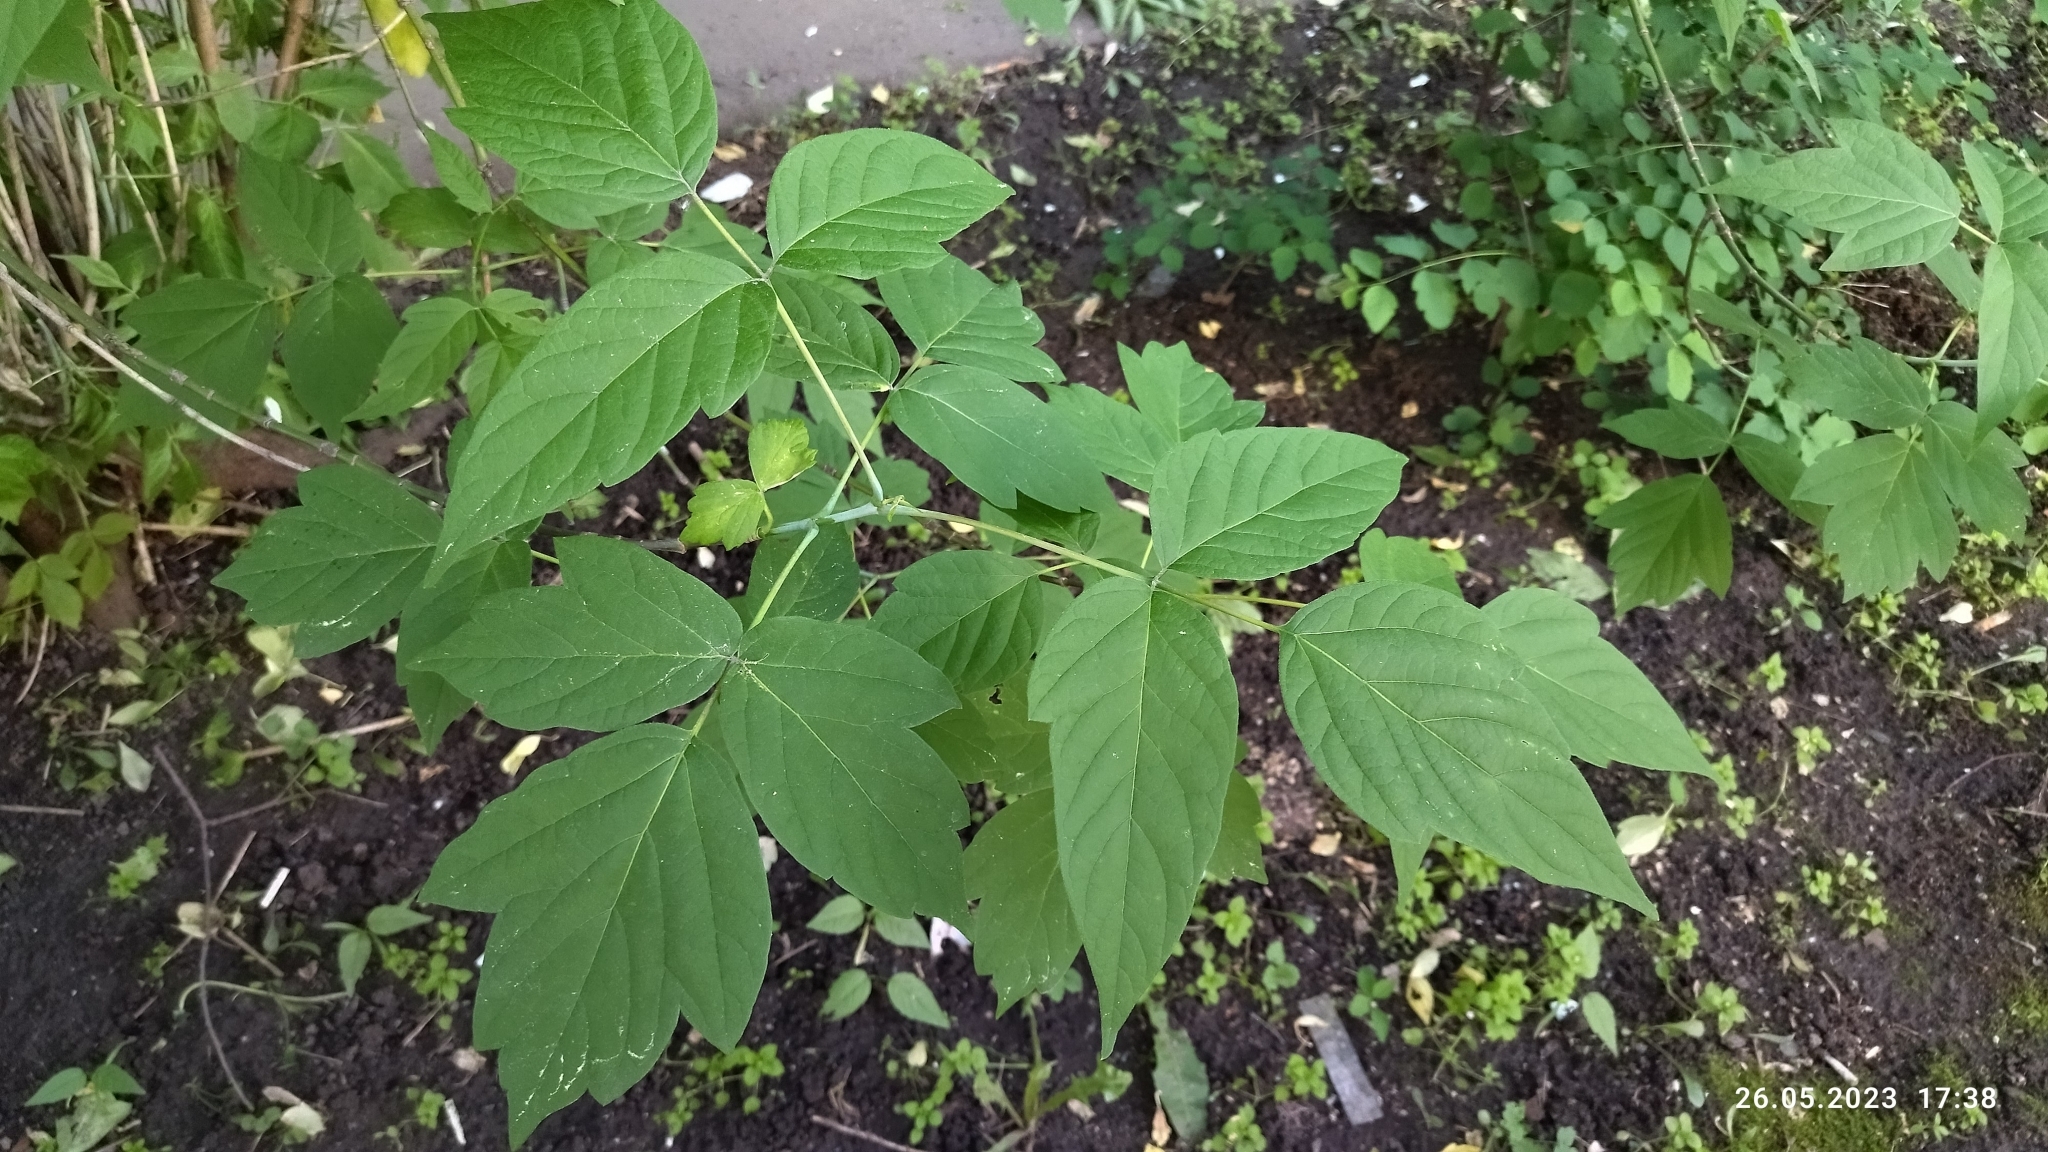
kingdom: Plantae
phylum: Tracheophyta
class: Magnoliopsida
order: Sapindales
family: Sapindaceae
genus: Acer
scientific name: Acer negundo
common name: Ashleaf maple
